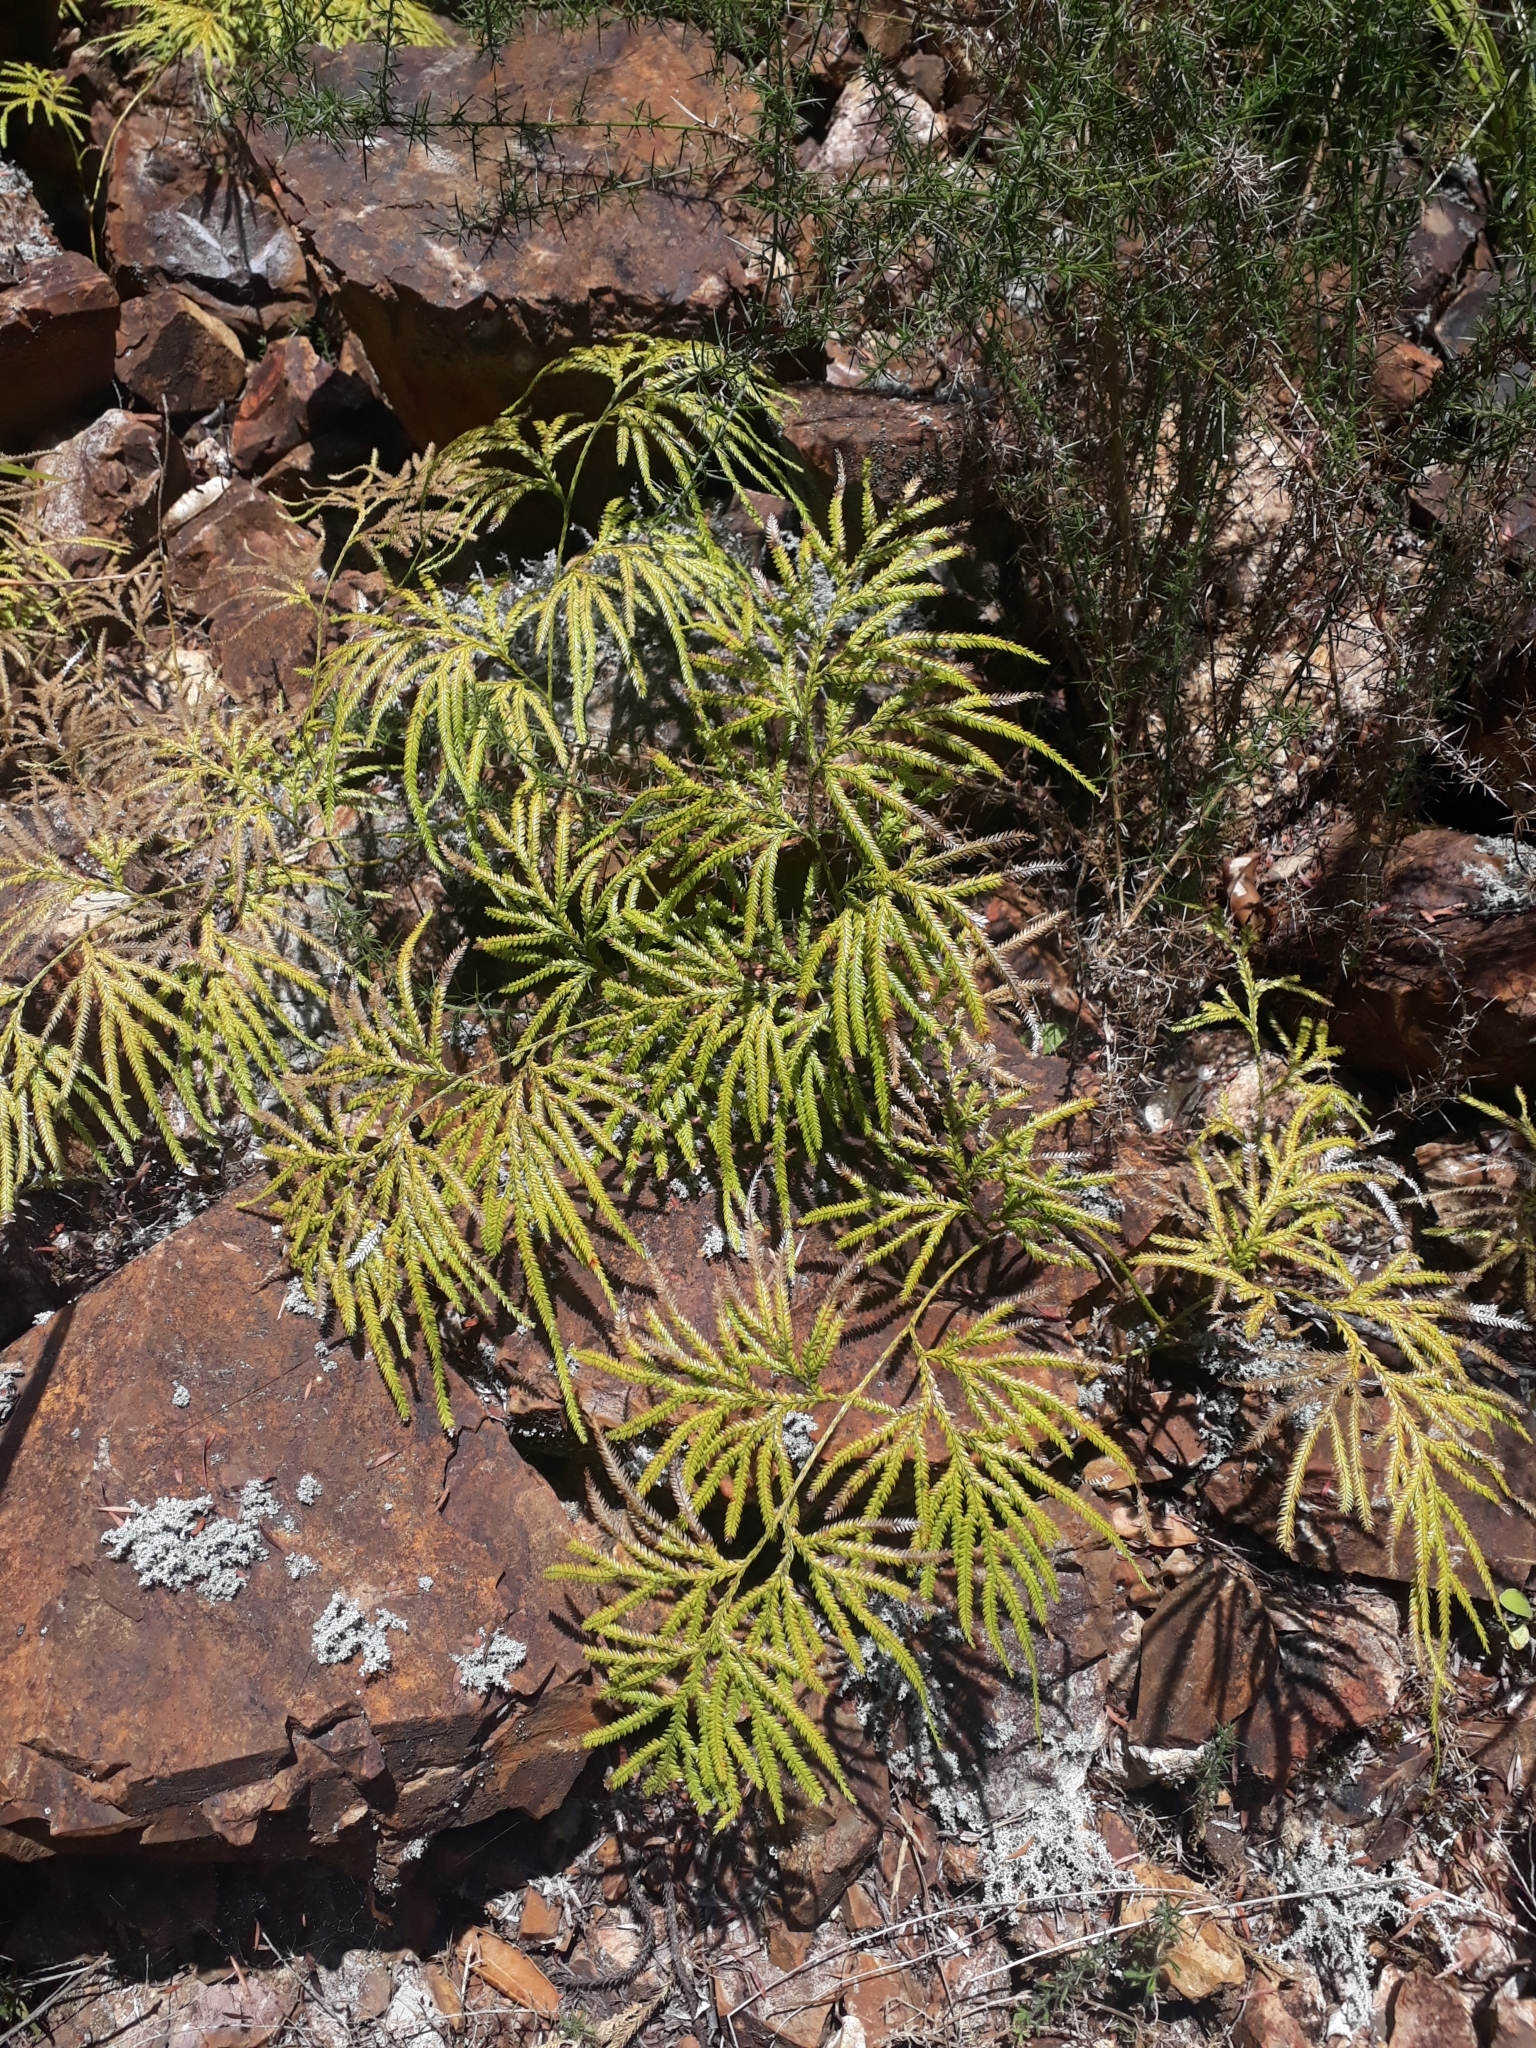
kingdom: Plantae
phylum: Tracheophyta
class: Lycopodiopsida
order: Lycopodiales
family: Lycopodiaceae
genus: Lycopodium
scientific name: Lycopodium volubile
